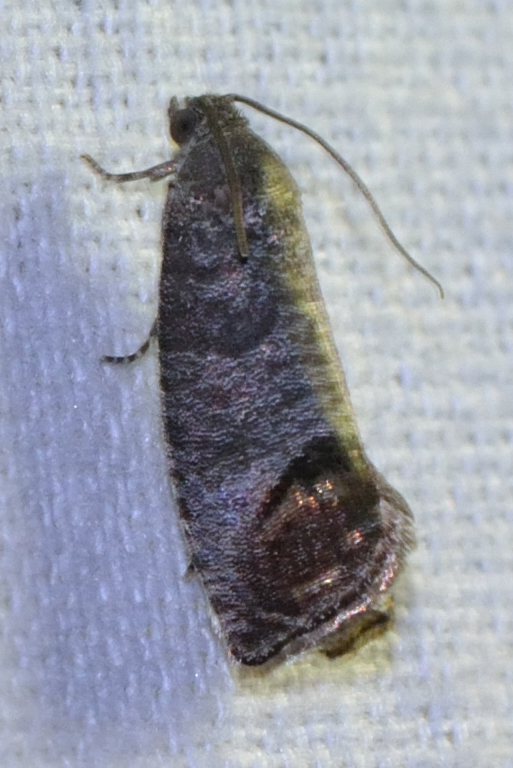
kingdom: Animalia
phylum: Arthropoda
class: Insecta
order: Lepidoptera
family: Tortricidae
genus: Cydia
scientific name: Cydia pomonella
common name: Codling moth
